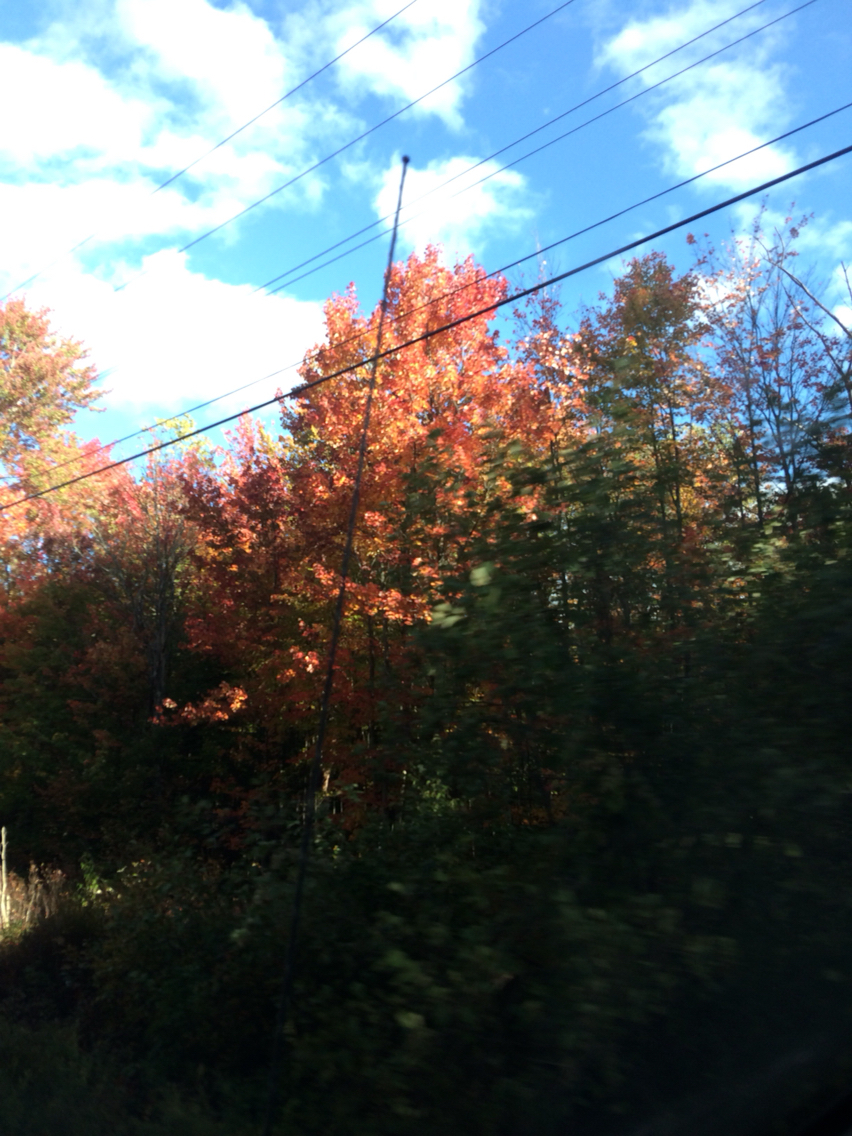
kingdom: Plantae
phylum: Tracheophyta
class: Magnoliopsida
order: Sapindales
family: Sapindaceae
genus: Acer
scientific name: Acer rubrum
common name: Red maple
